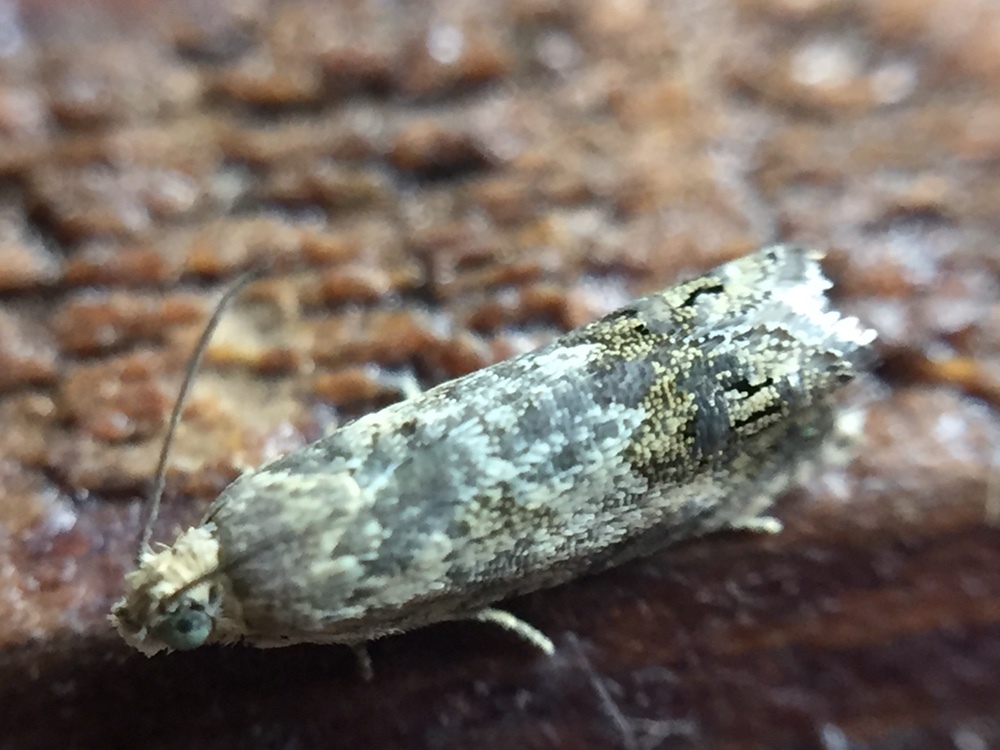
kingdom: Animalia
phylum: Arthropoda
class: Insecta
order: Lepidoptera
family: Tortricidae
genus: Cydia
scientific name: Cydia succedana
